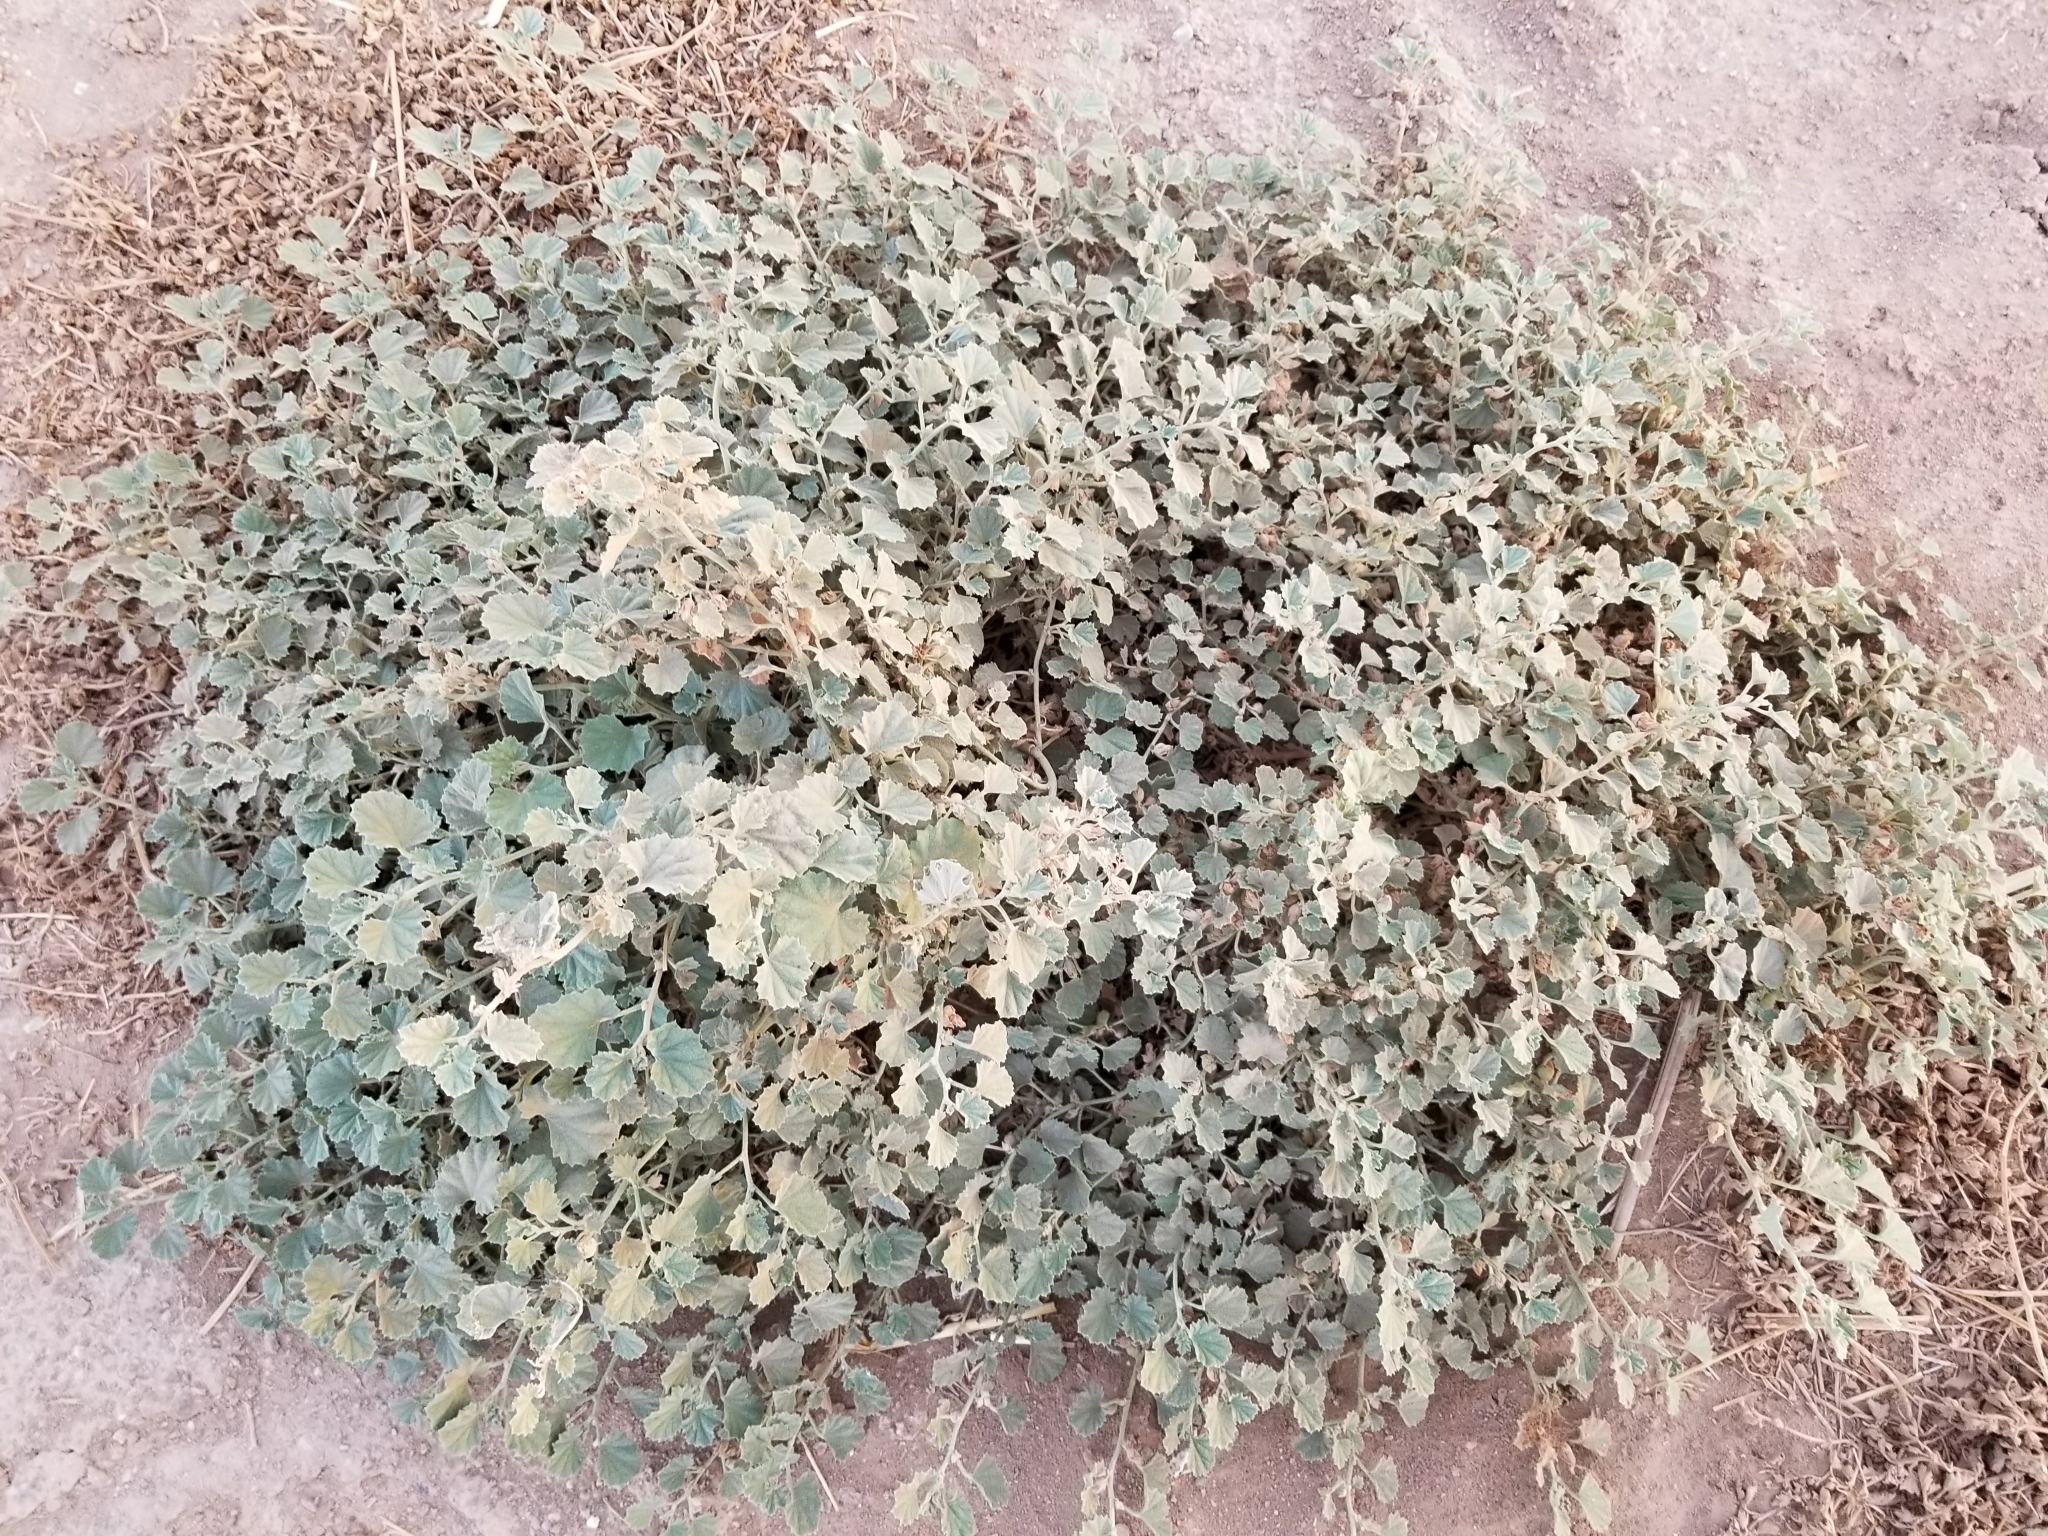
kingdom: Plantae
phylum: Tracheophyta
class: Magnoliopsida
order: Malvales
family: Malvaceae
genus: Malvella
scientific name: Malvella leprosa
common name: Alkali-mallow
